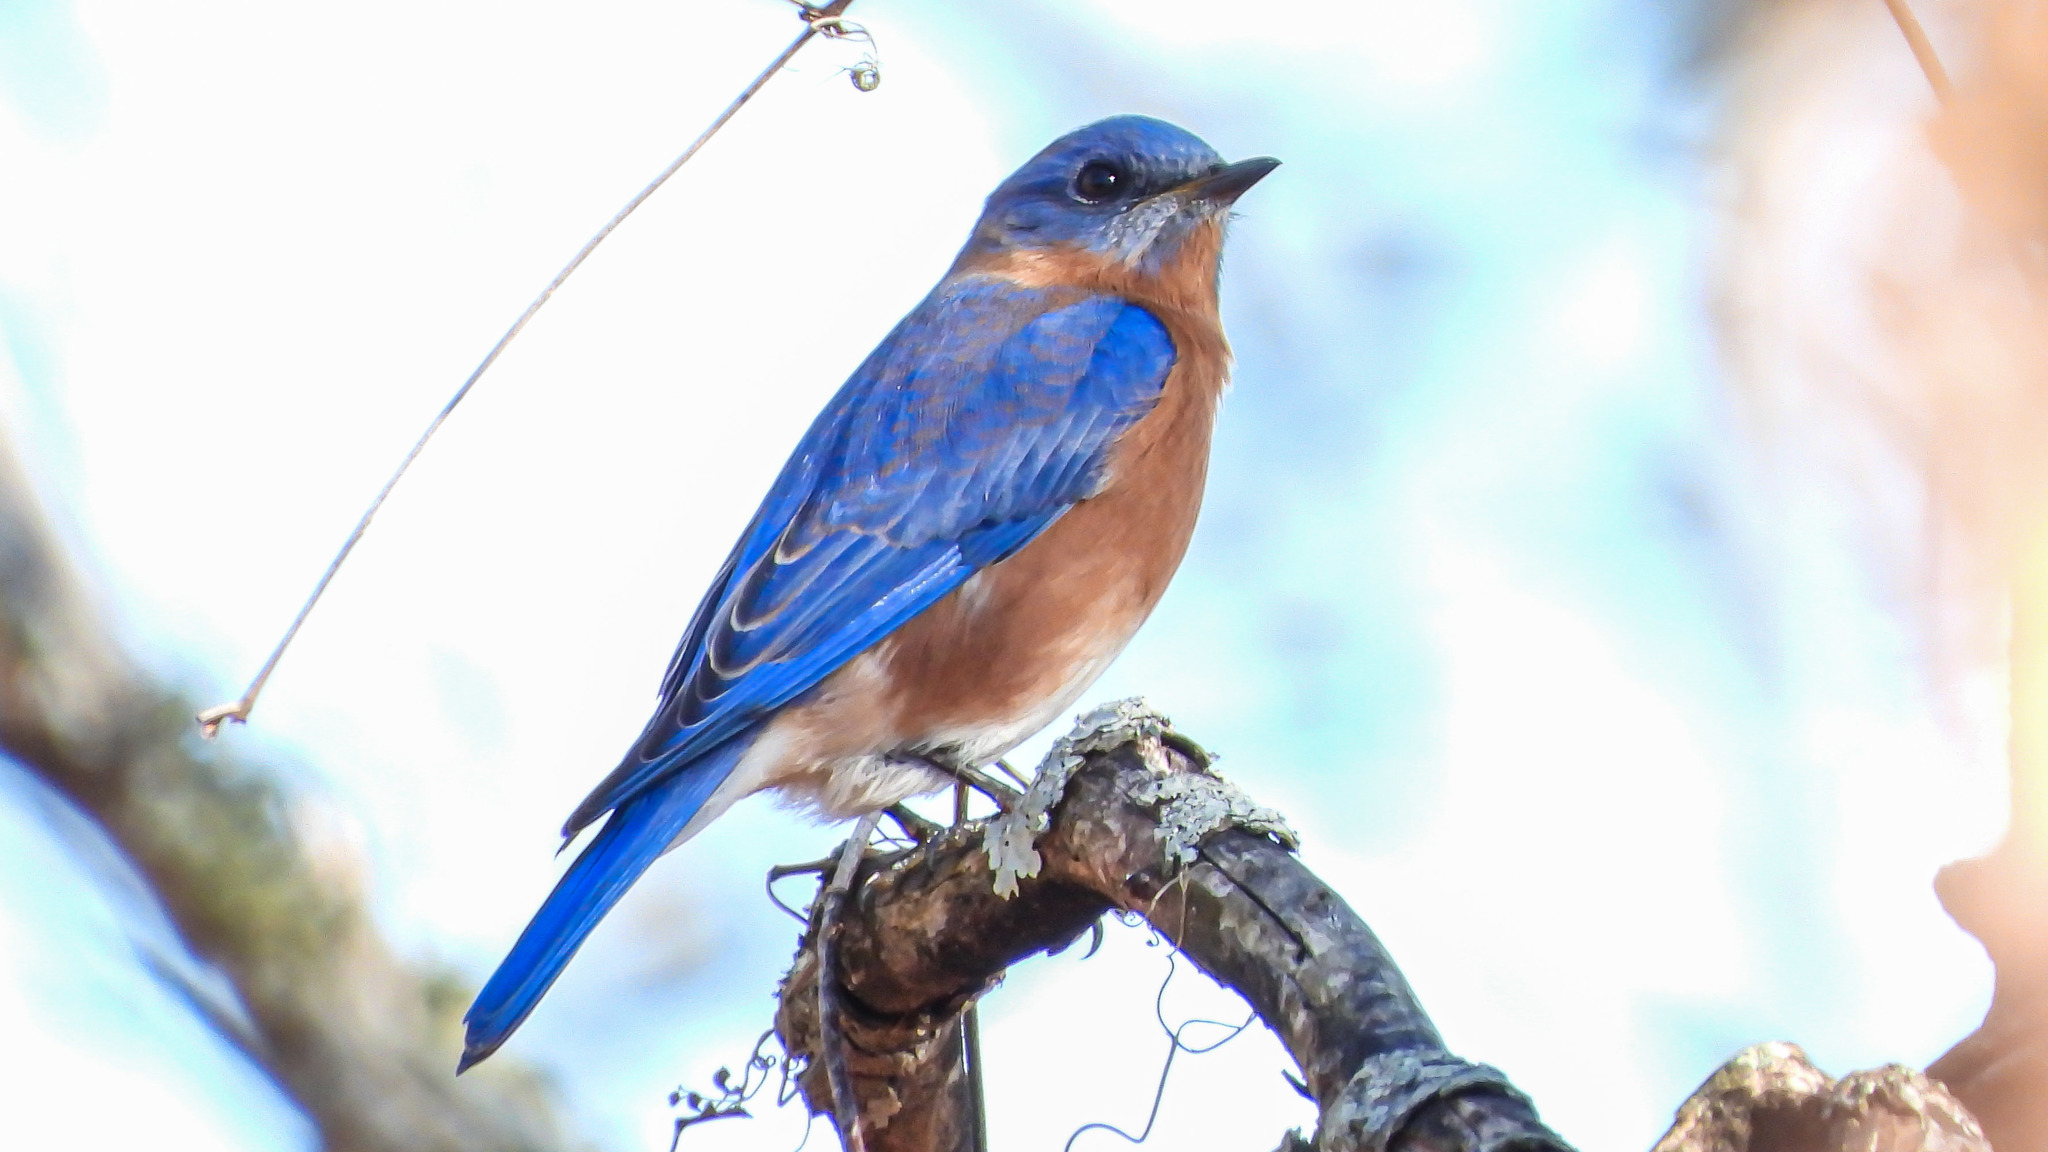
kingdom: Animalia
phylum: Chordata
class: Aves
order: Passeriformes
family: Turdidae
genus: Sialia
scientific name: Sialia sialis
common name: Eastern bluebird
